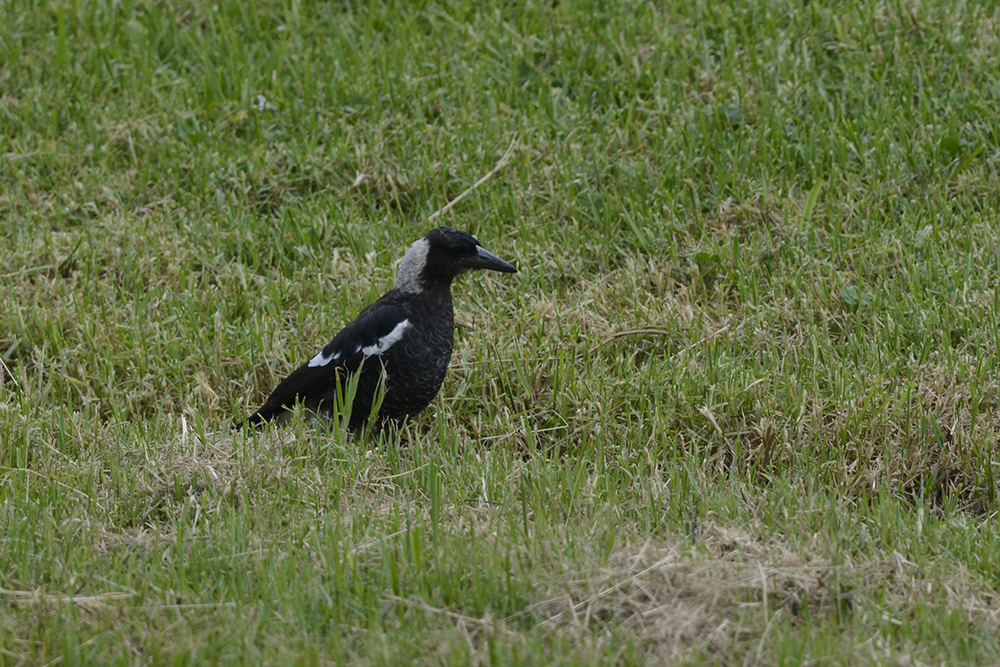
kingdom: Animalia
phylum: Chordata
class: Aves
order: Passeriformes
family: Cracticidae
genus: Gymnorhina
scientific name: Gymnorhina tibicen
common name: Australian magpie
